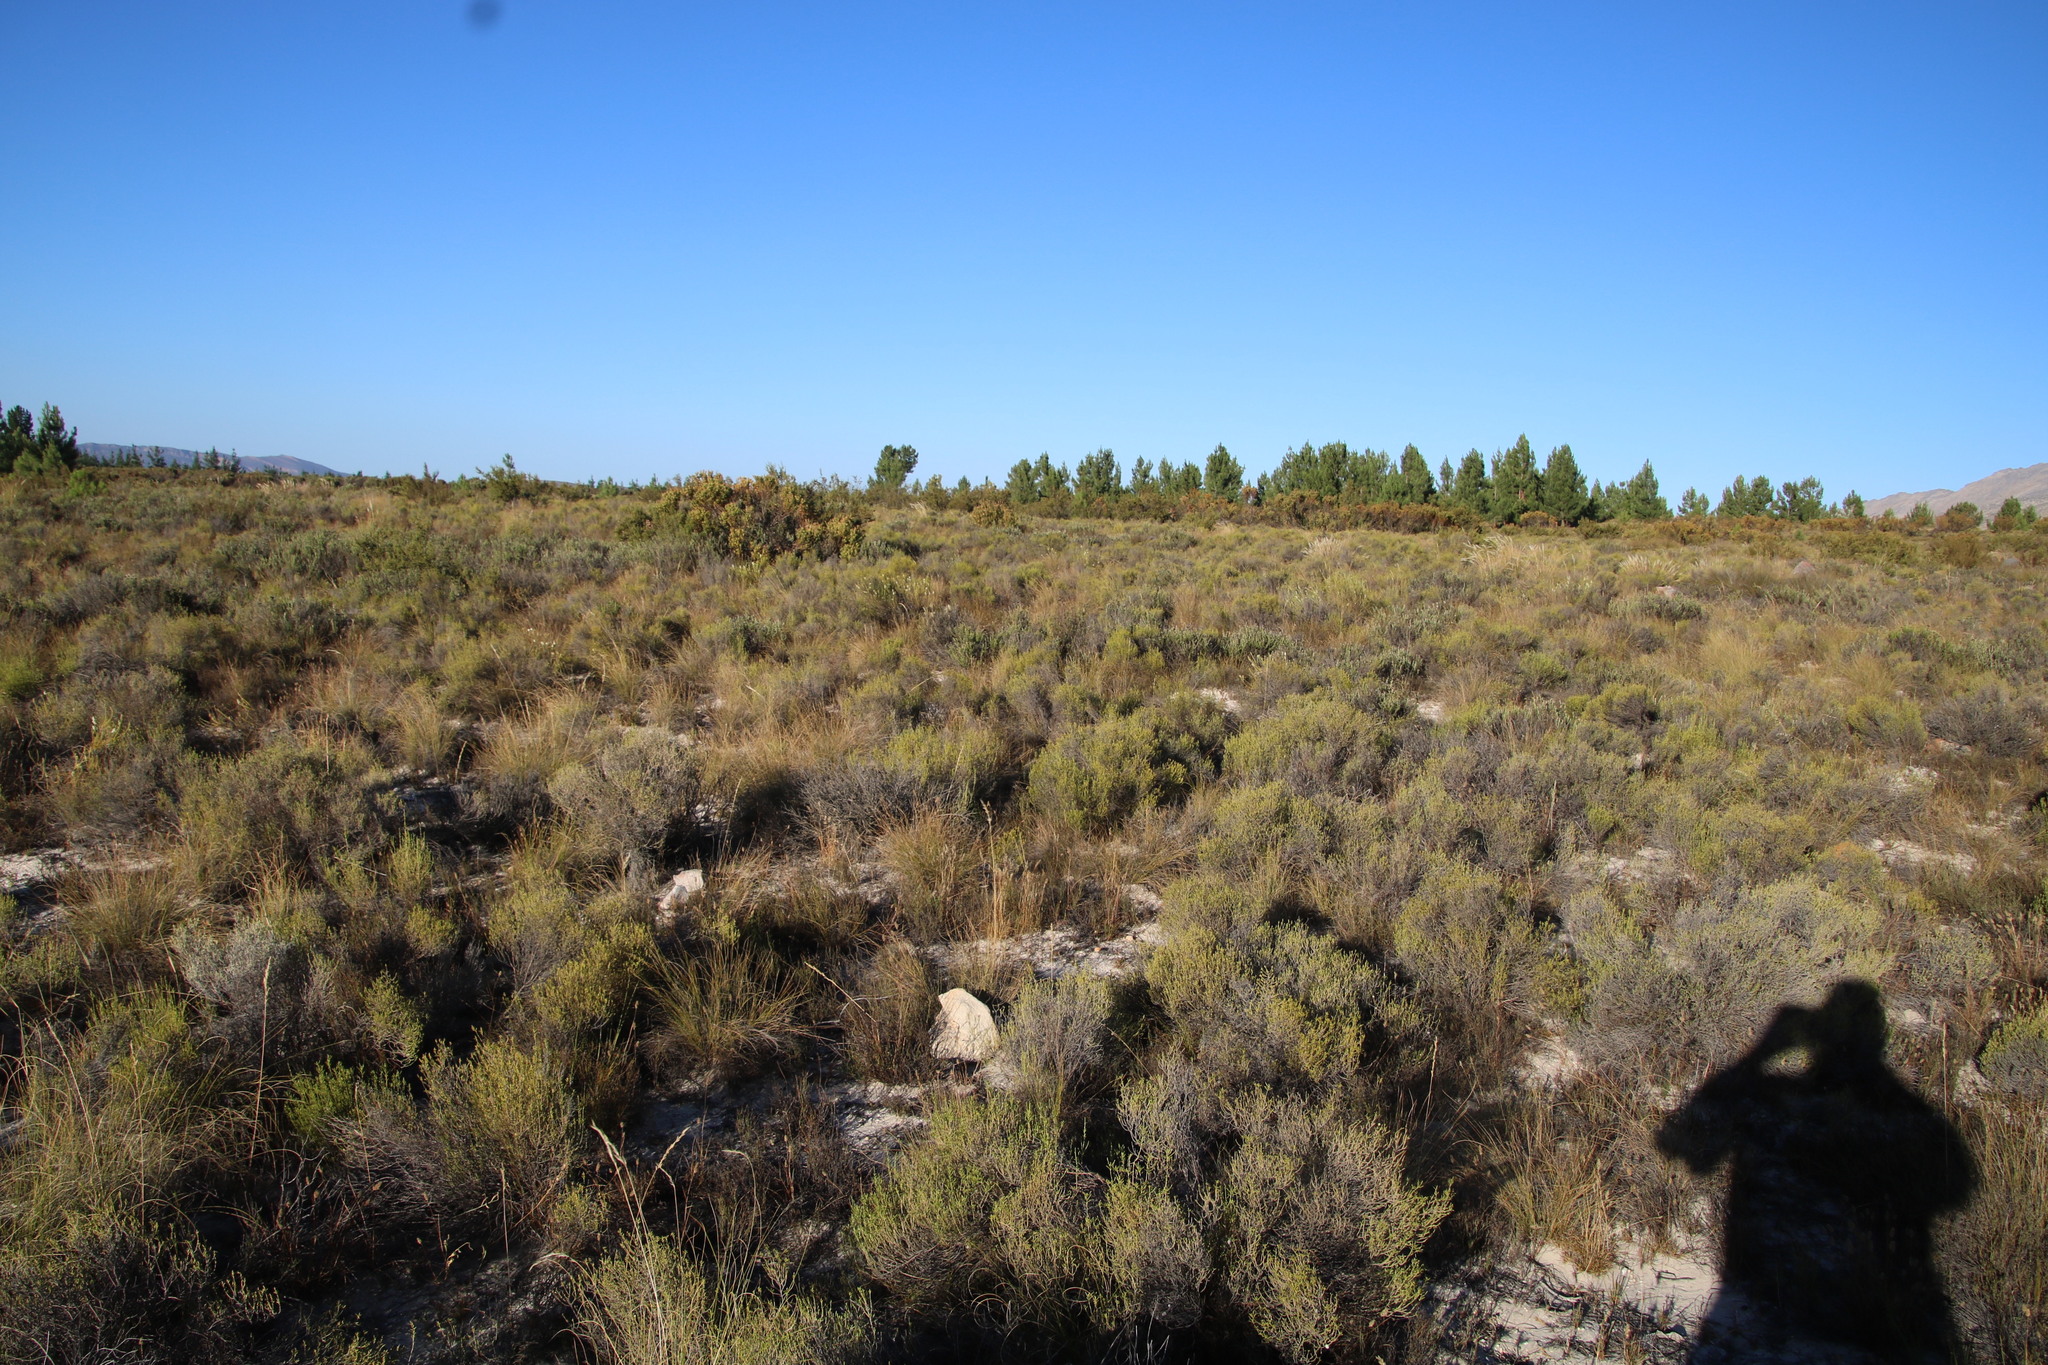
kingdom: Plantae
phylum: Tracheophyta
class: Magnoliopsida
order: Proteales
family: Proteaceae
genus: Leucadendron
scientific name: Leucadendron salignum
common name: Common sunshine conebush
